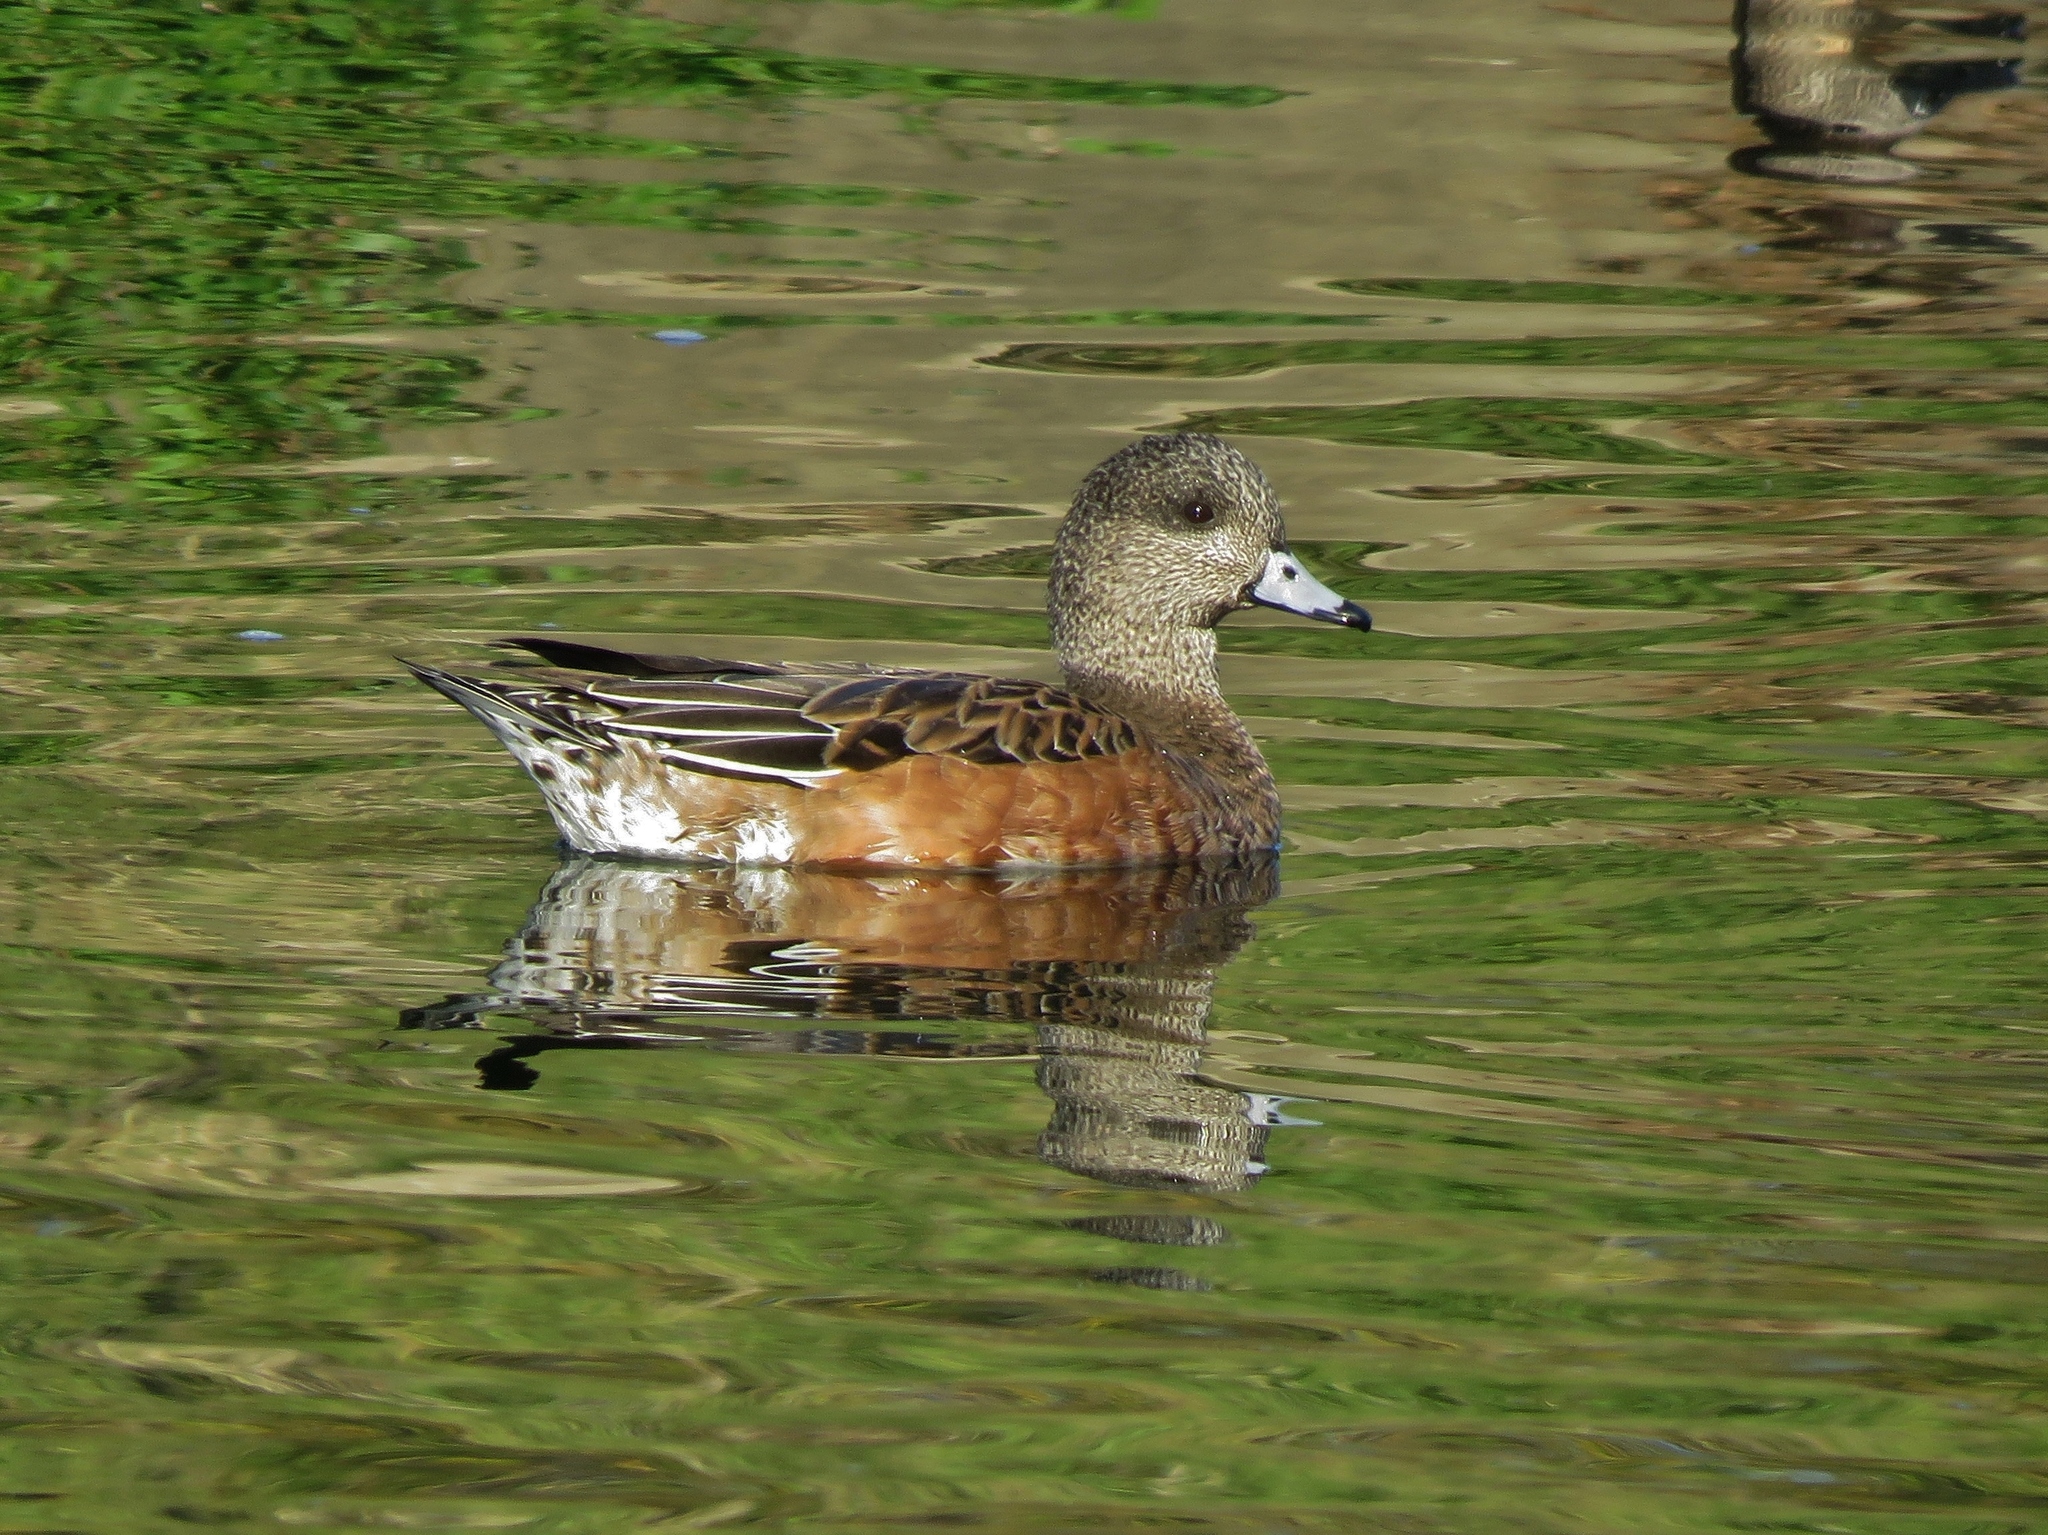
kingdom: Animalia
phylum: Chordata
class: Aves
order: Anseriformes
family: Anatidae
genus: Mareca
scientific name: Mareca americana
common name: American wigeon
